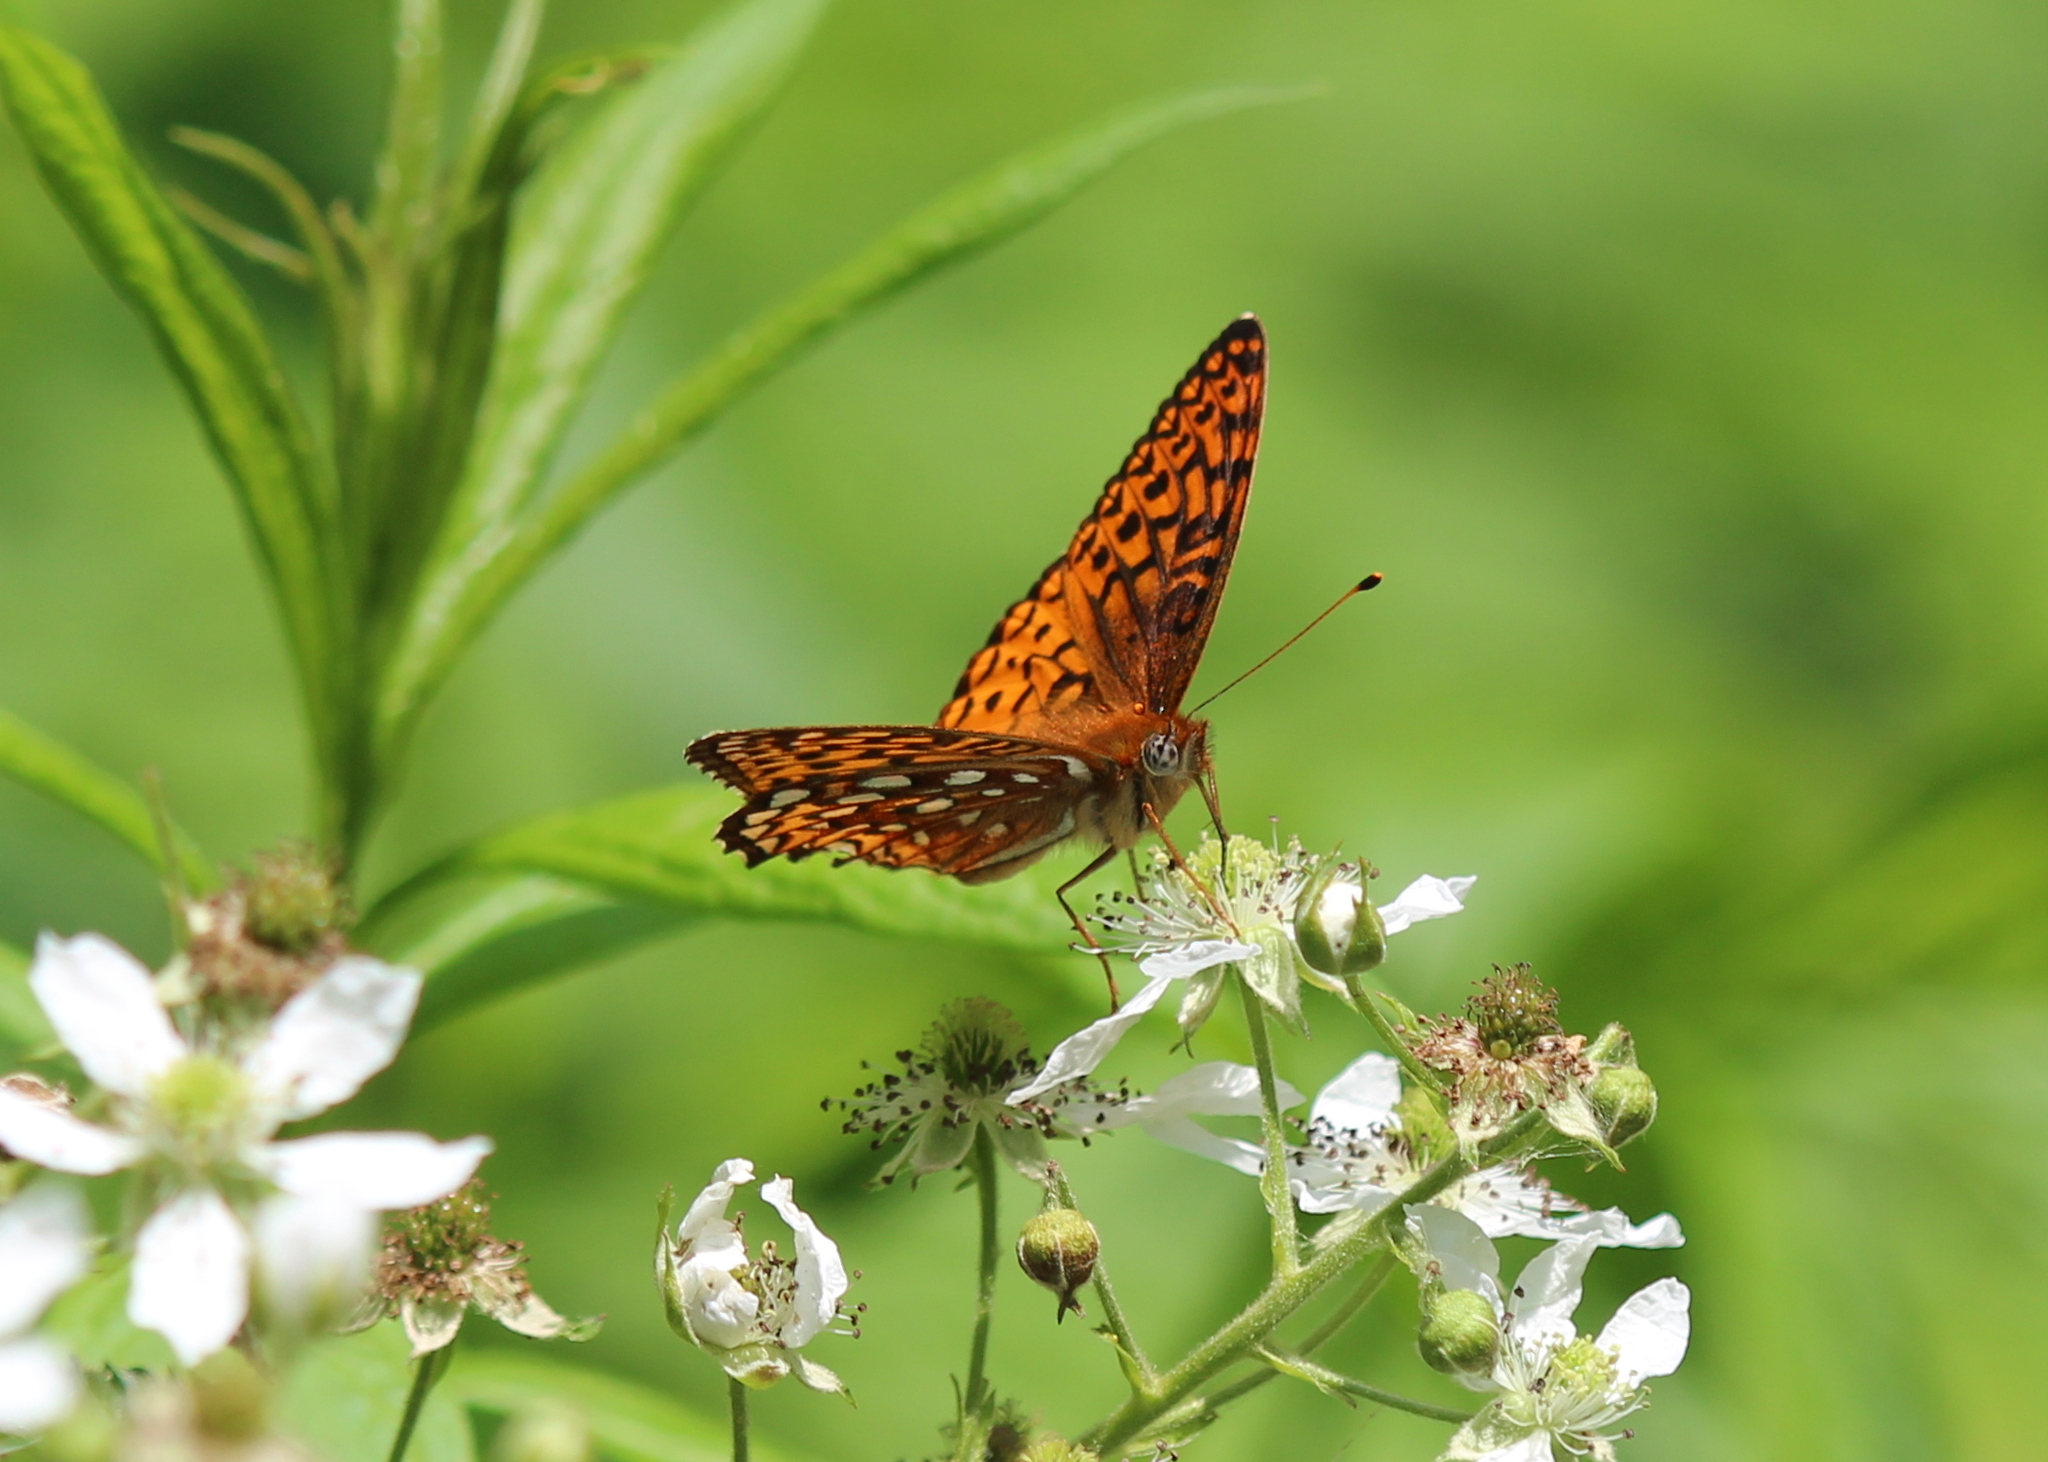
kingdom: Animalia
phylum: Arthropoda
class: Insecta
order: Lepidoptera
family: Nymphalidae
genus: Speyeria
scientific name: Speyeria atlantis
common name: Atlantis fritillary
